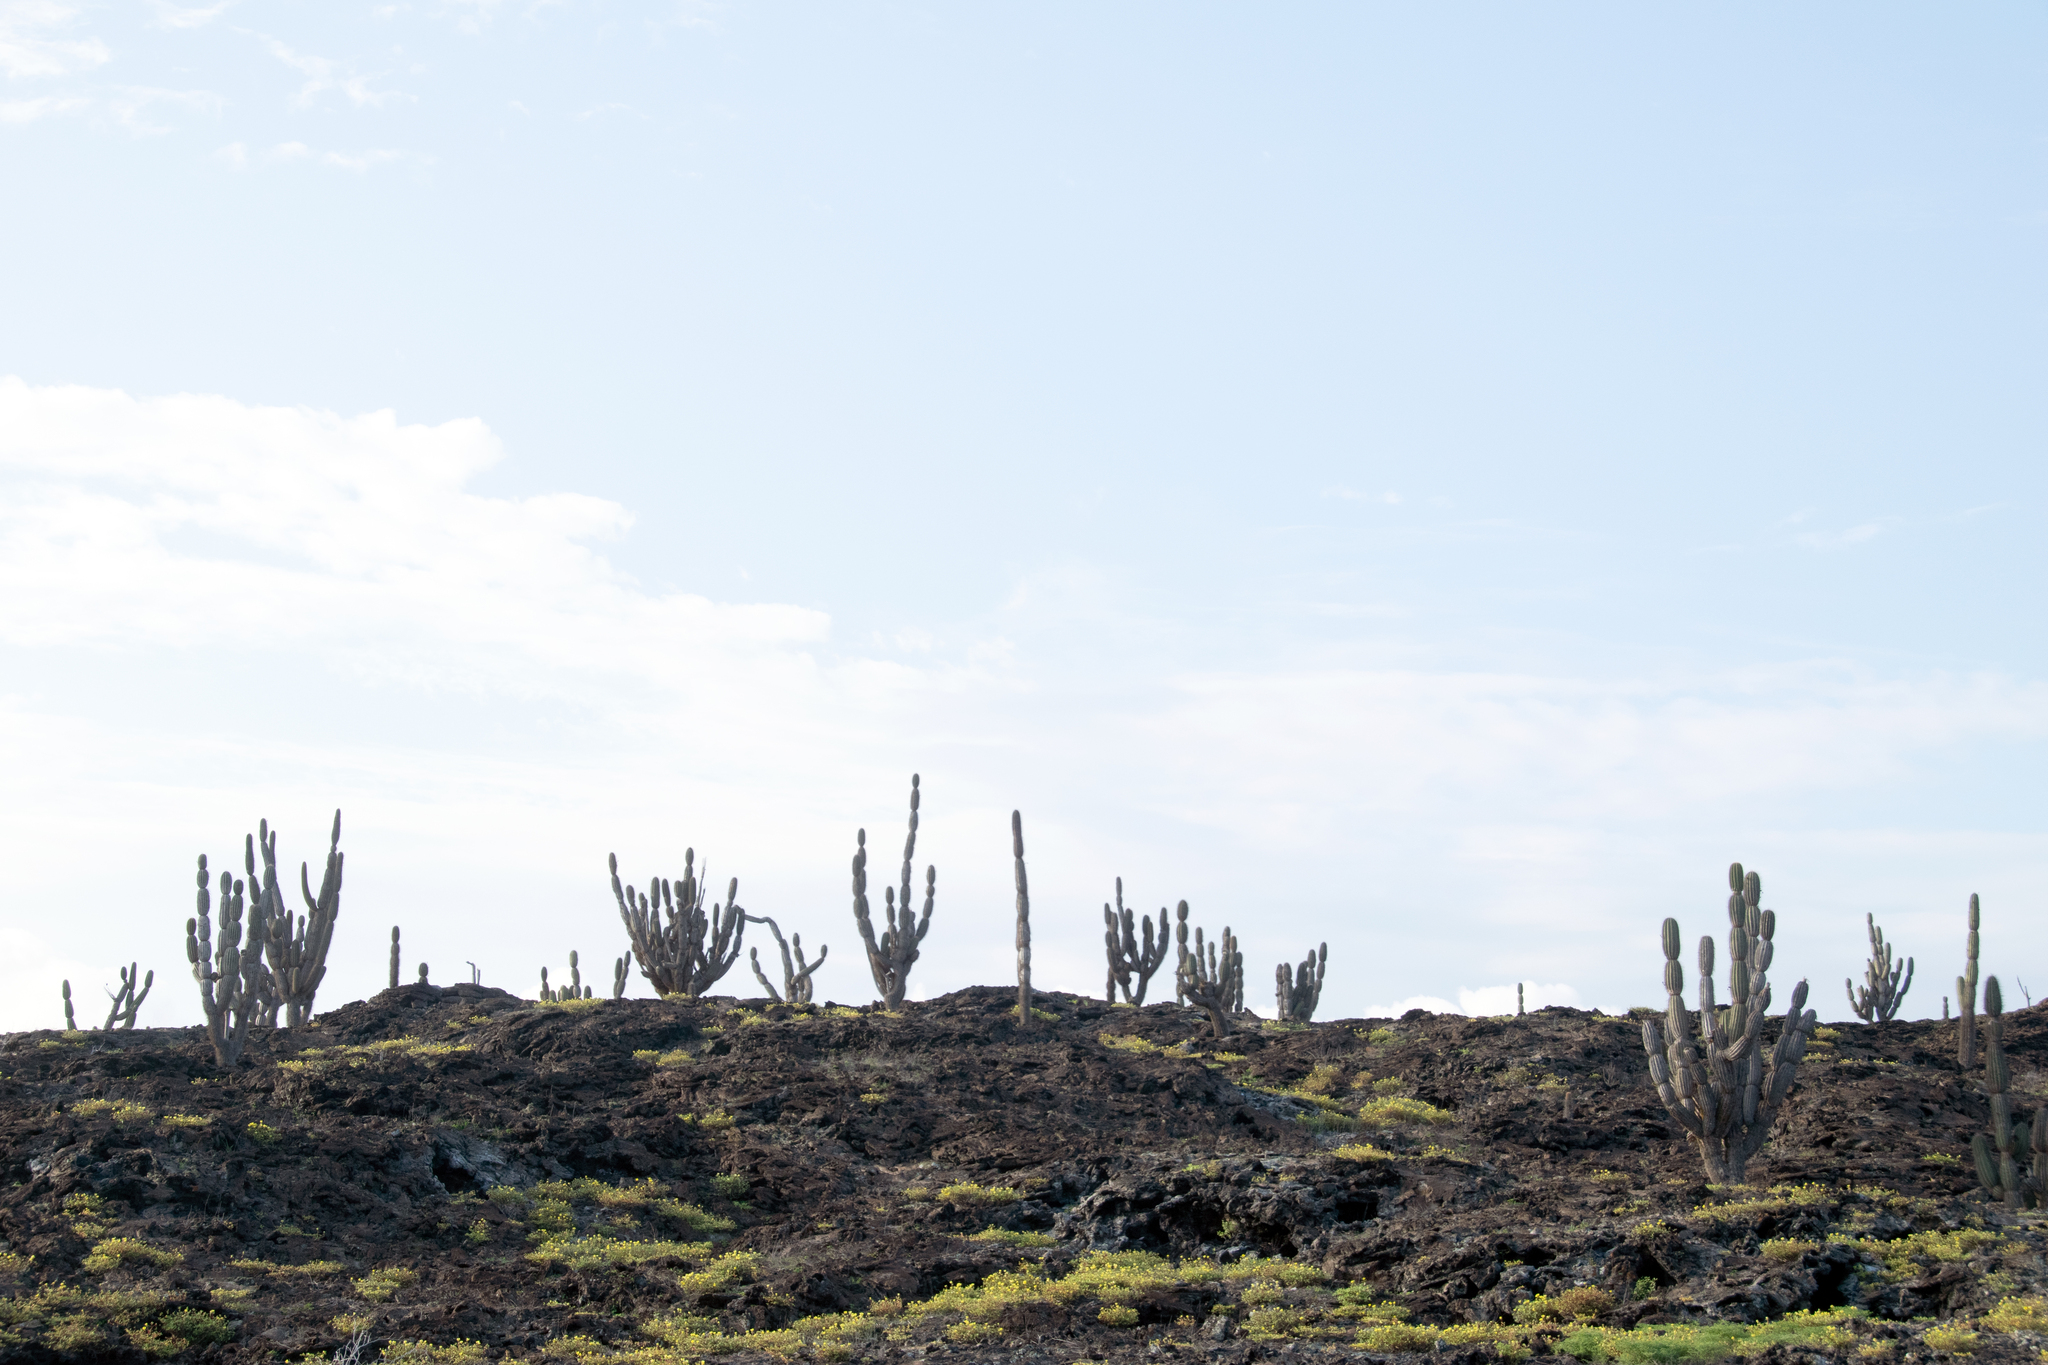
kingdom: Plantae
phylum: Tracheophyta
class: Magnoliopsida
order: Caryophyllales
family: Cactaceae
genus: Jasminocereus
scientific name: Jasminocereus thouarsii
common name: Candelabra cactus
